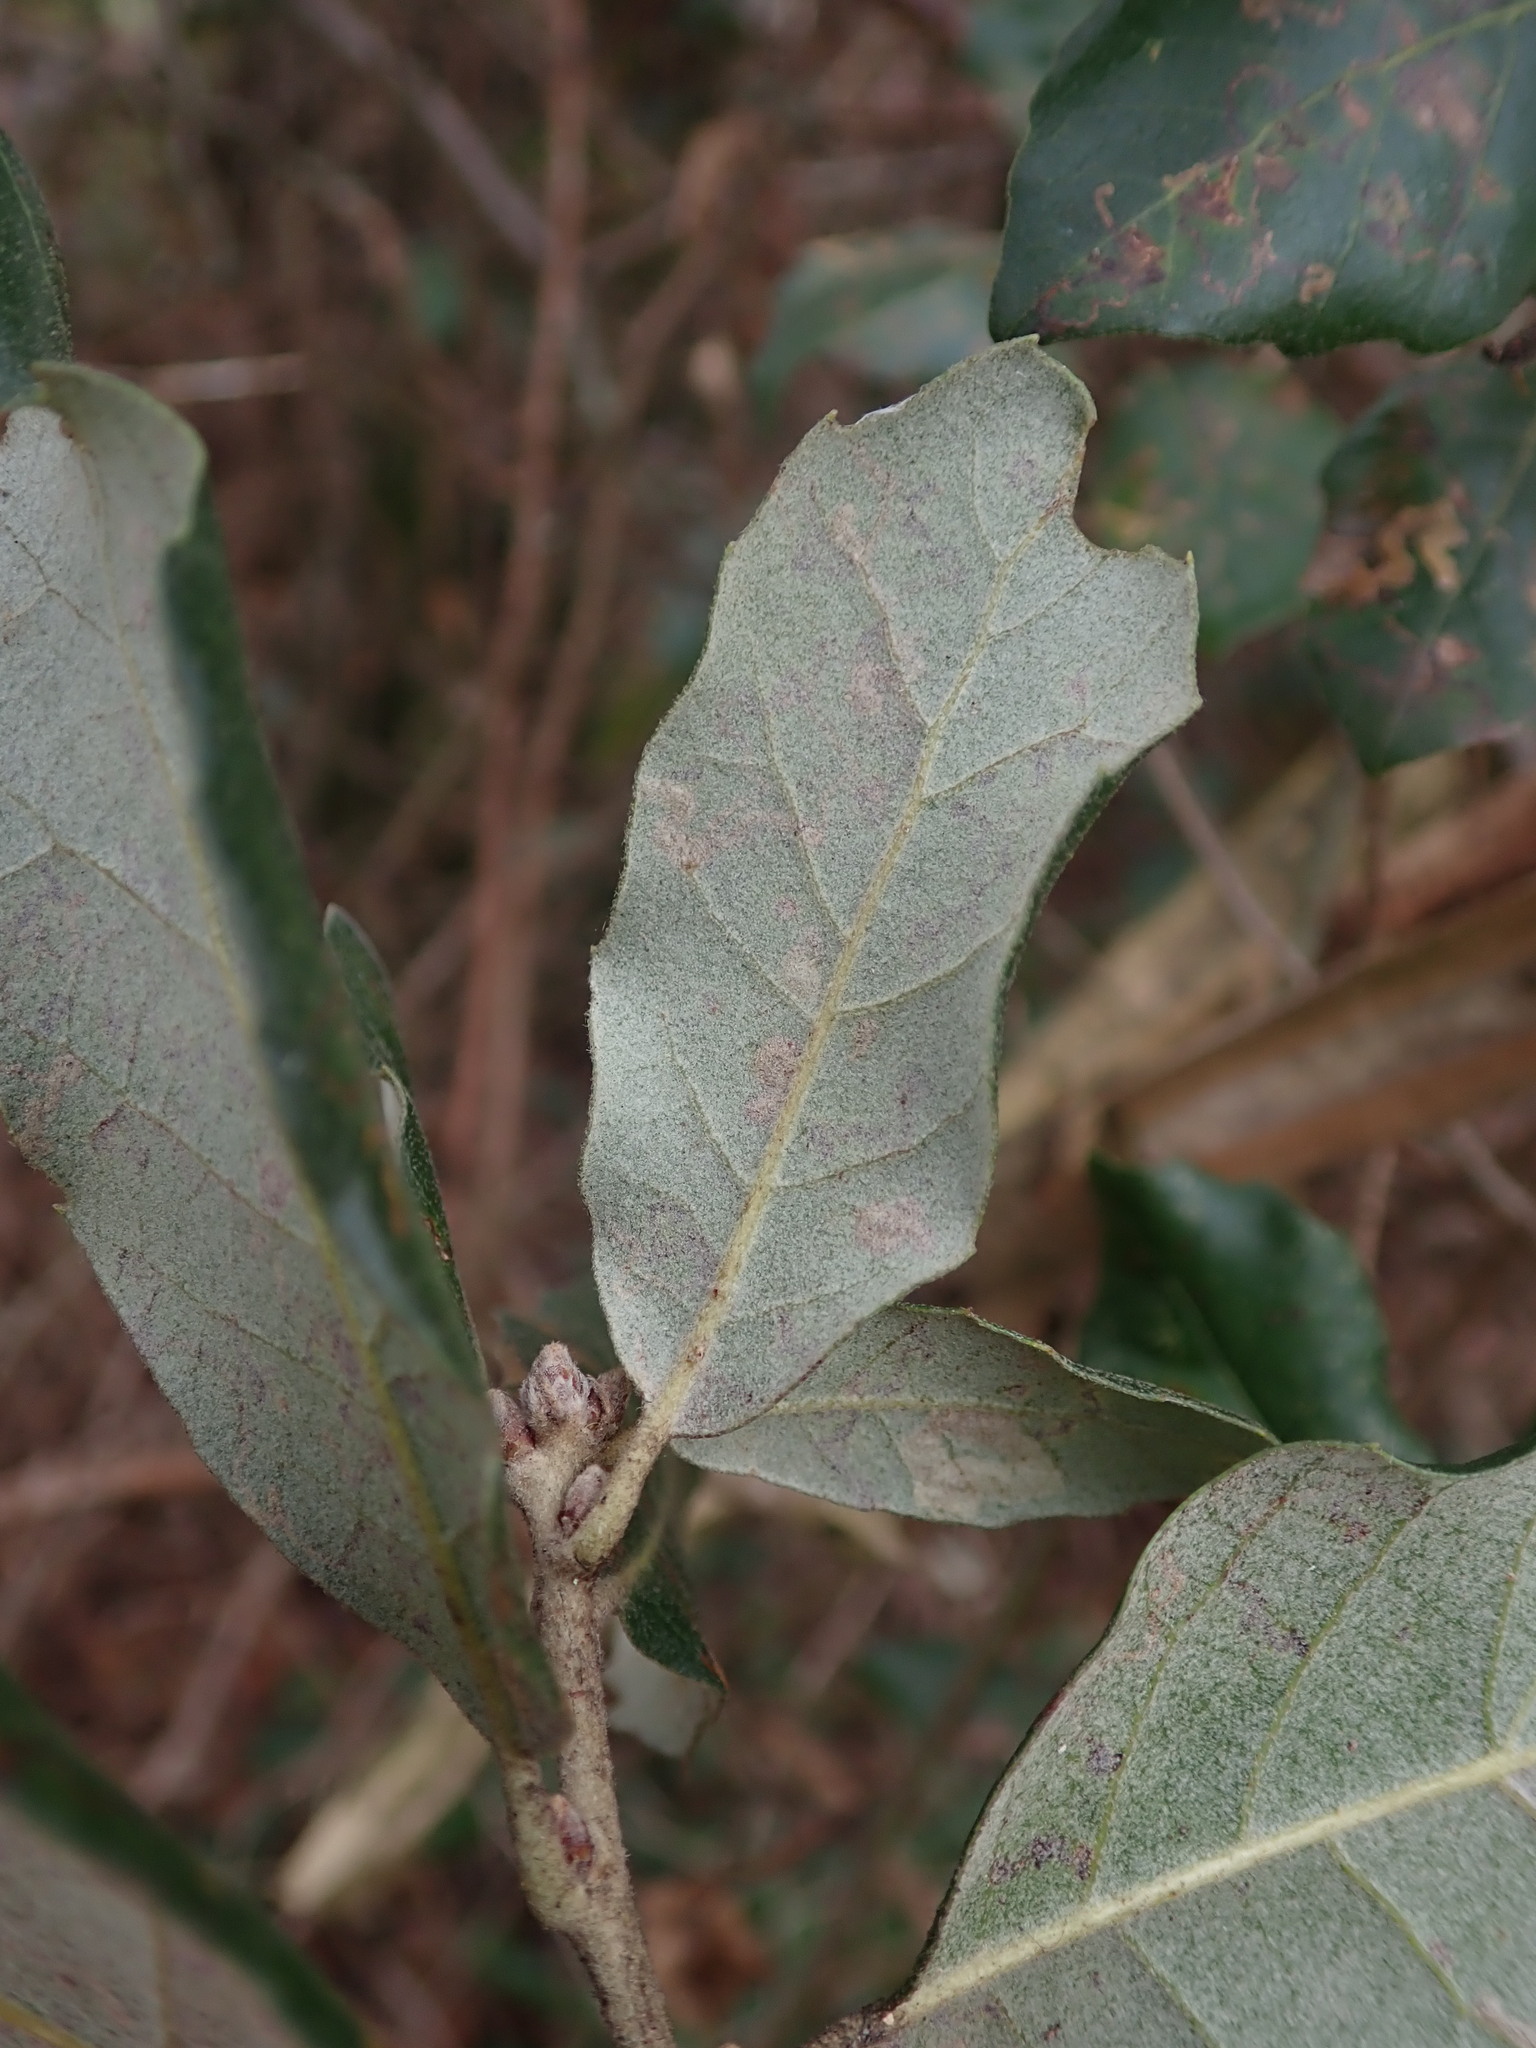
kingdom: Plantae
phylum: Tracheophyta
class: Magnoliopsida
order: Fagales
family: Fagaceae
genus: Quercus
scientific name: Quercus ilex
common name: Evergreen oak
